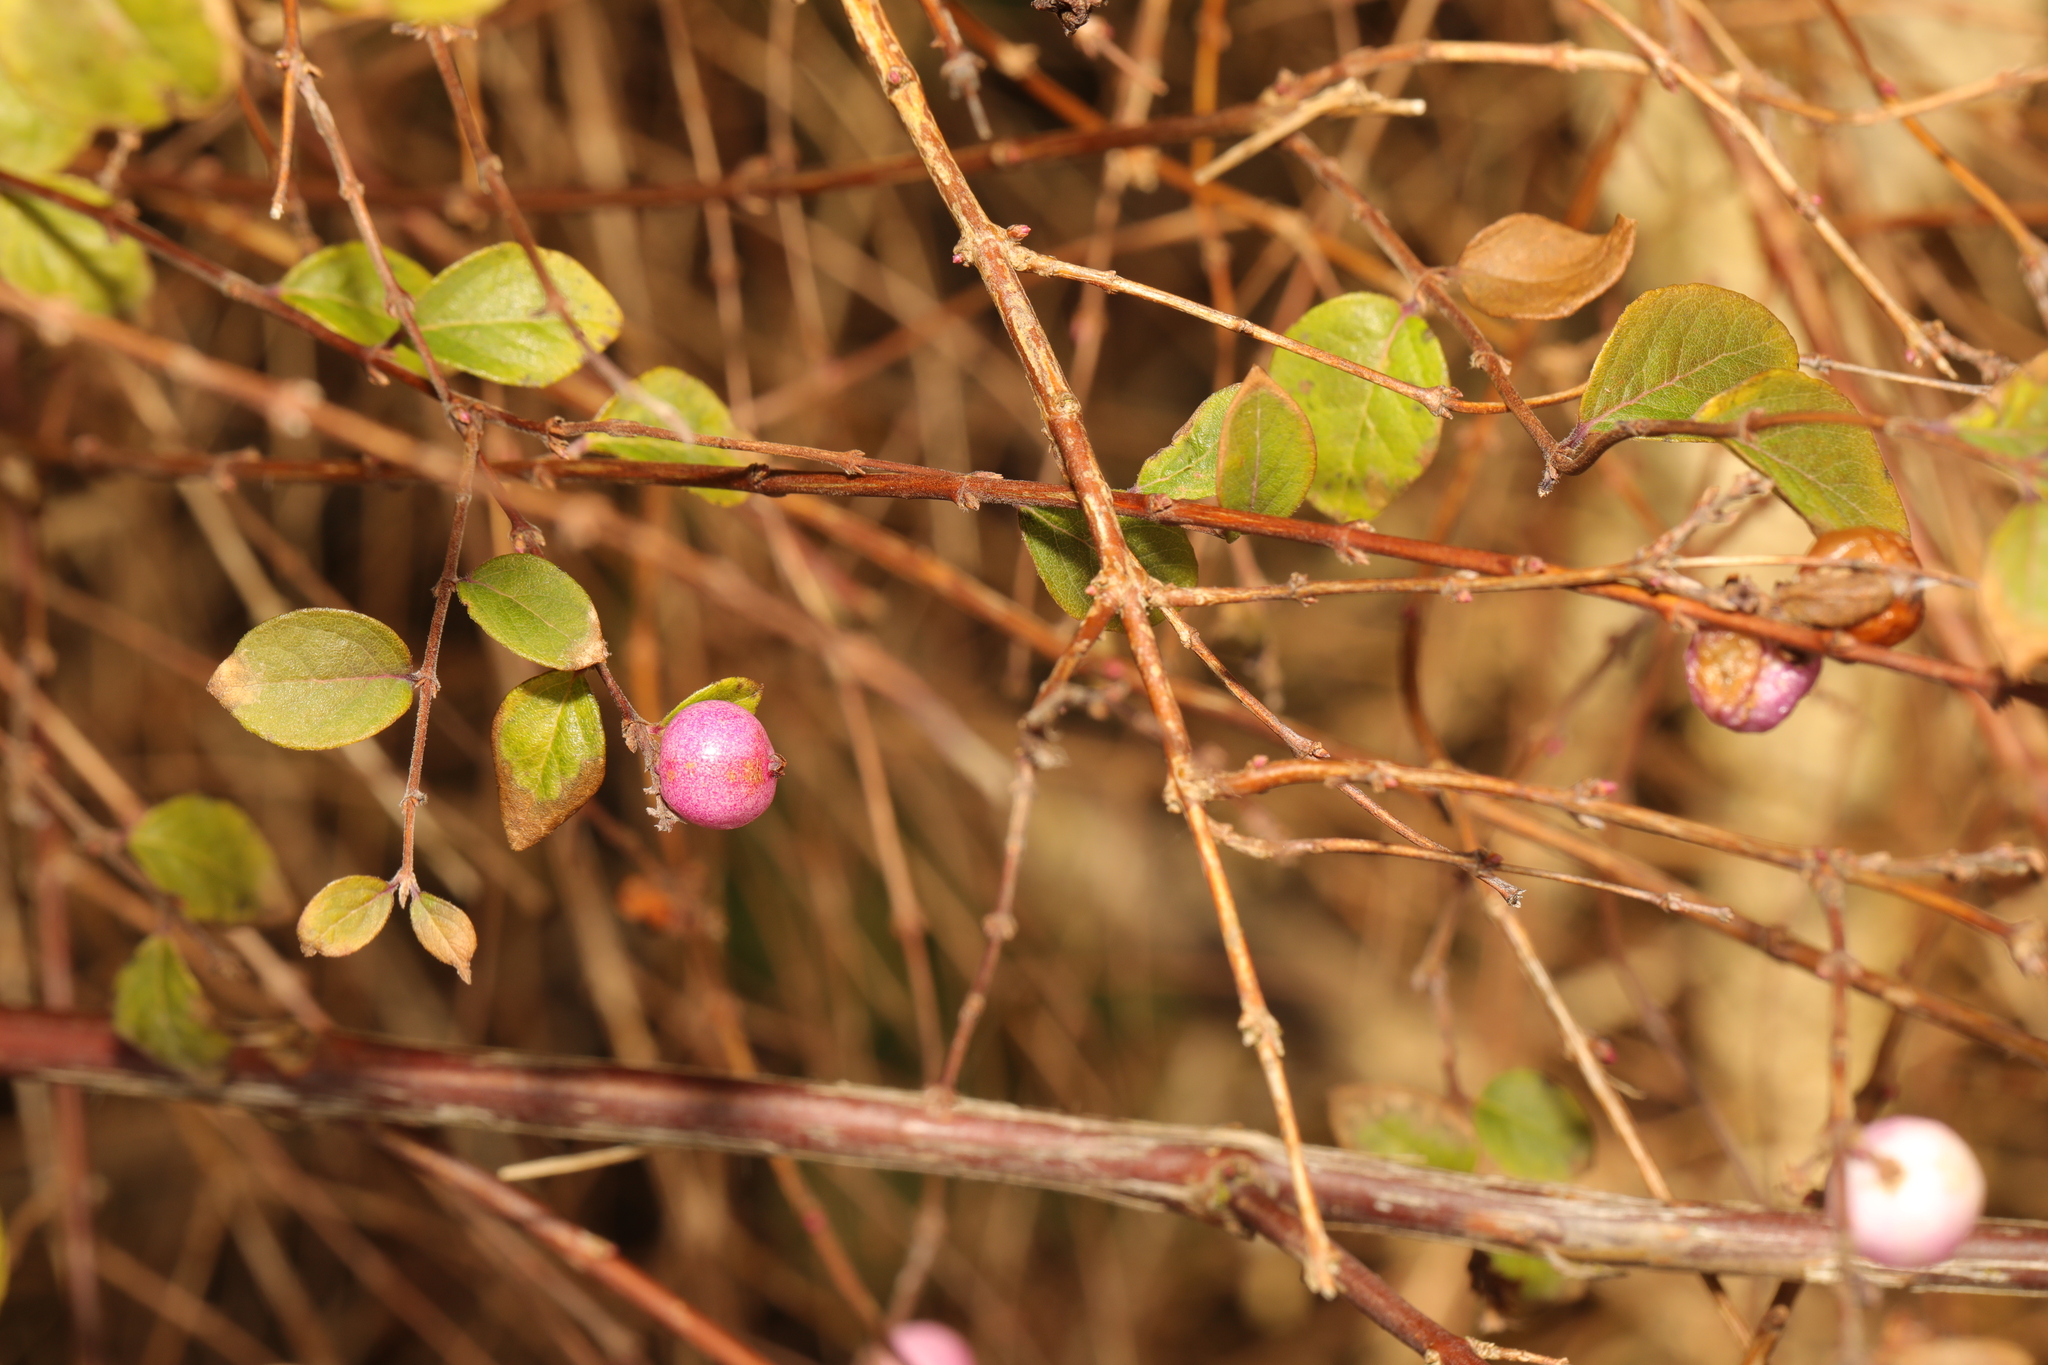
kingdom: Plantae
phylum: Tracheophyta
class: Magnoliopsida
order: Dipsacales
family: Caprifoliaceae
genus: Symphoricarpos
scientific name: Symphoricarpos chenaultii
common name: Hybrid coralberry
